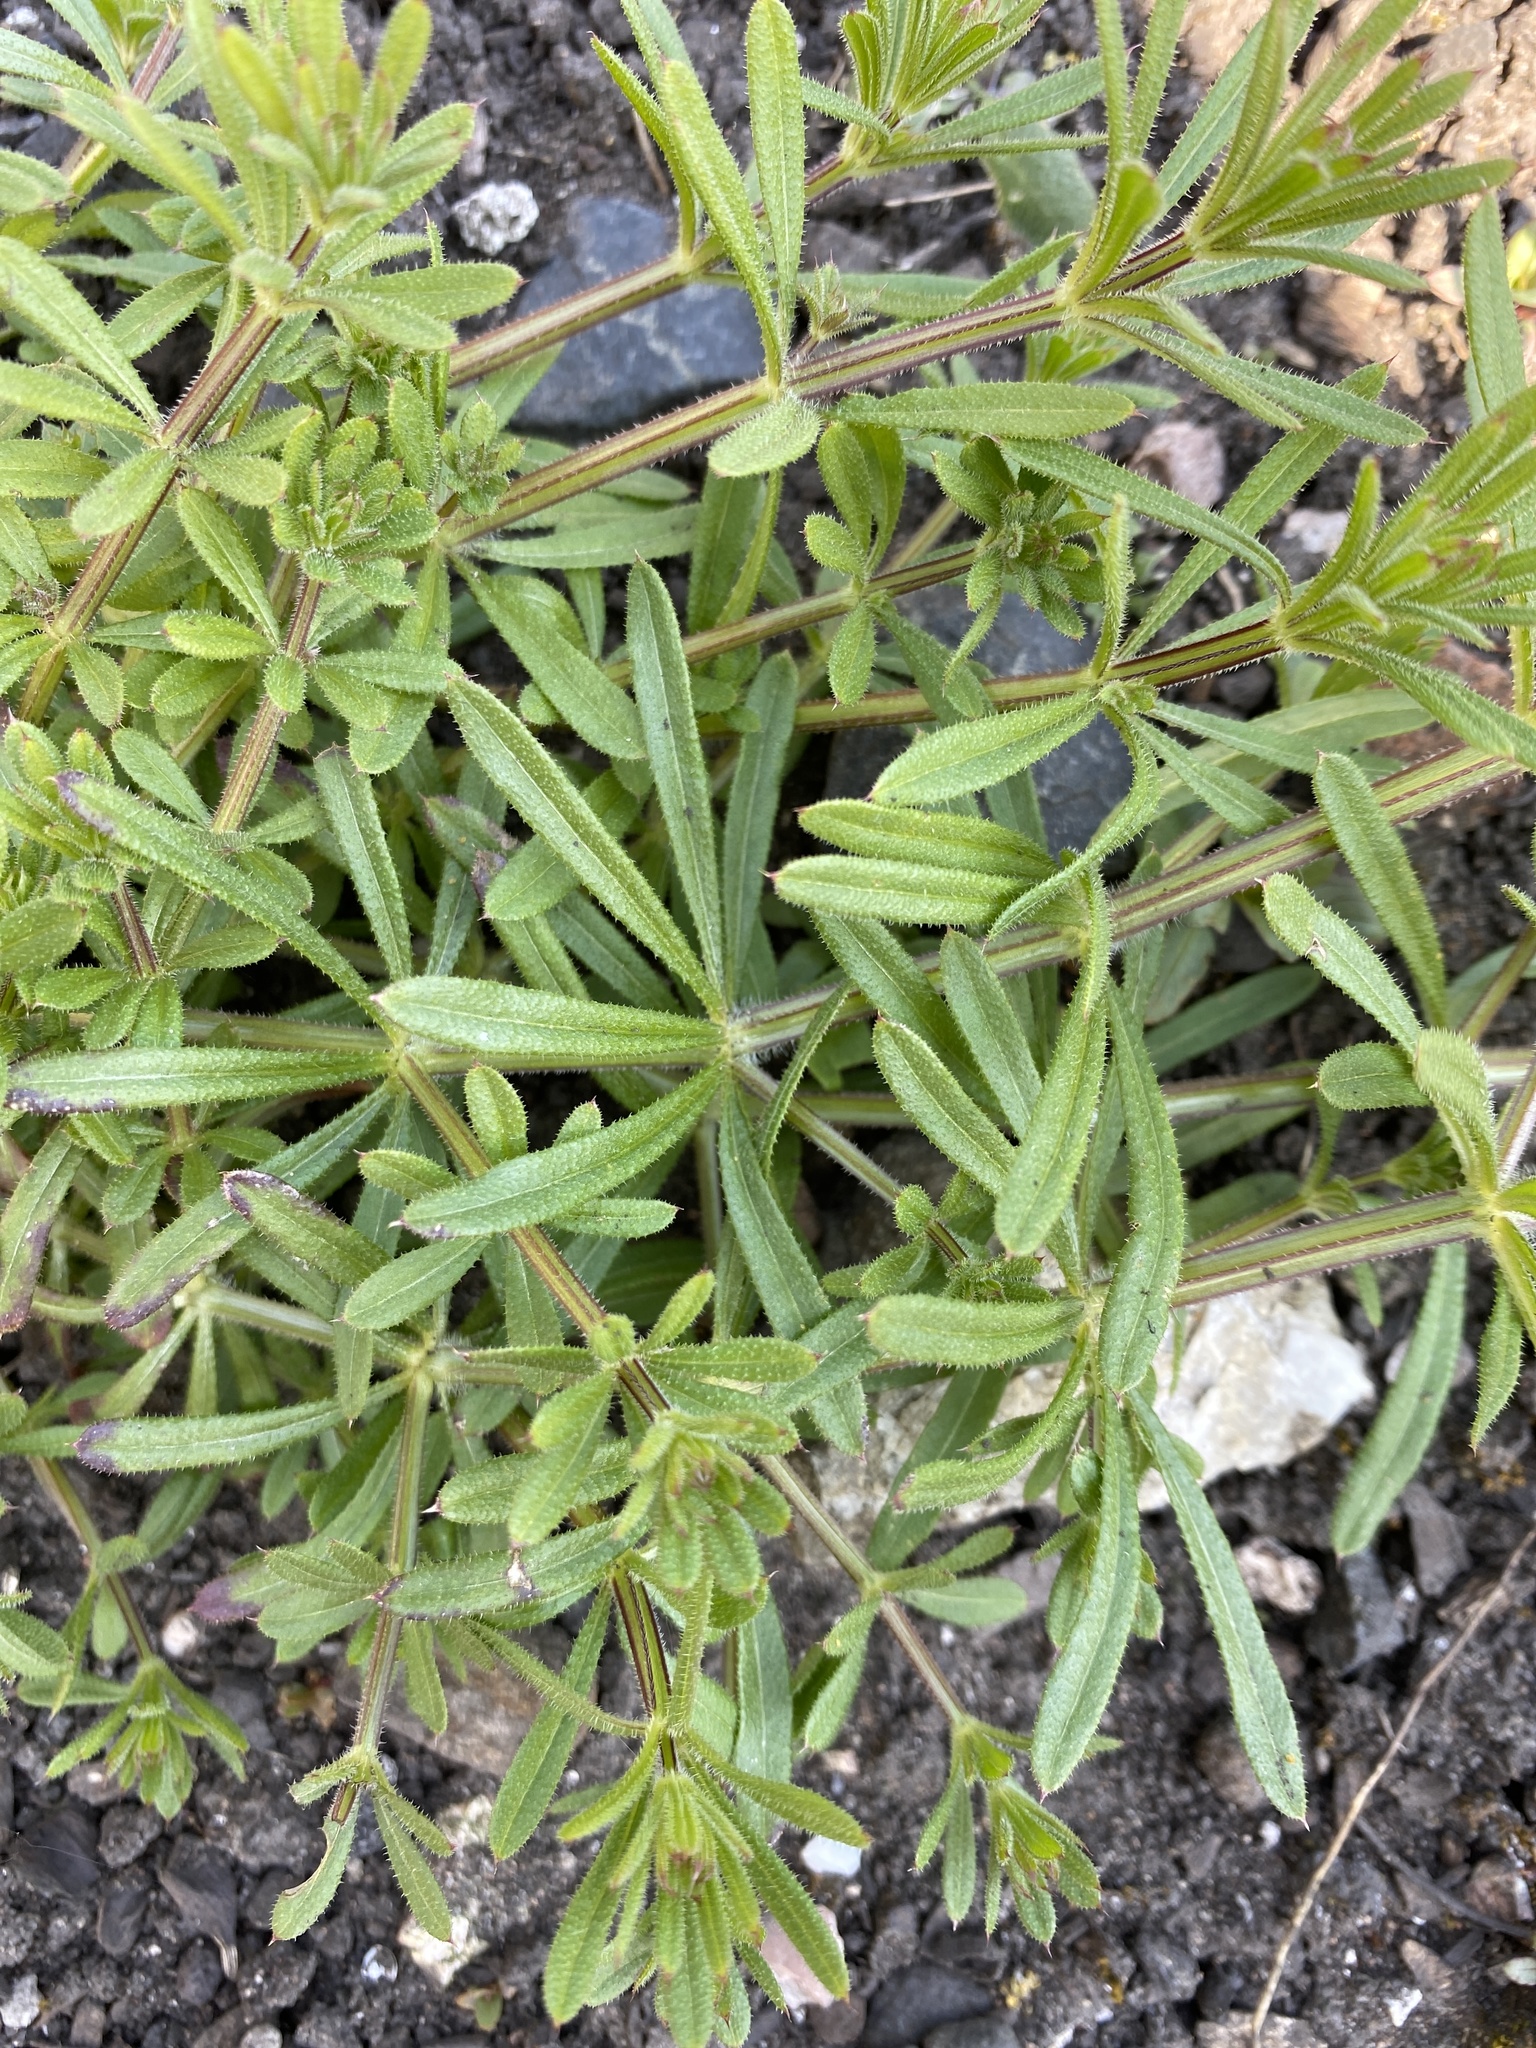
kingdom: Plantae
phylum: Tracheophyta
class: Magnoliopsida
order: Gentianales
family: Rubiaceae
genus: Galium
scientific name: Galium aparine
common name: Cleavers
